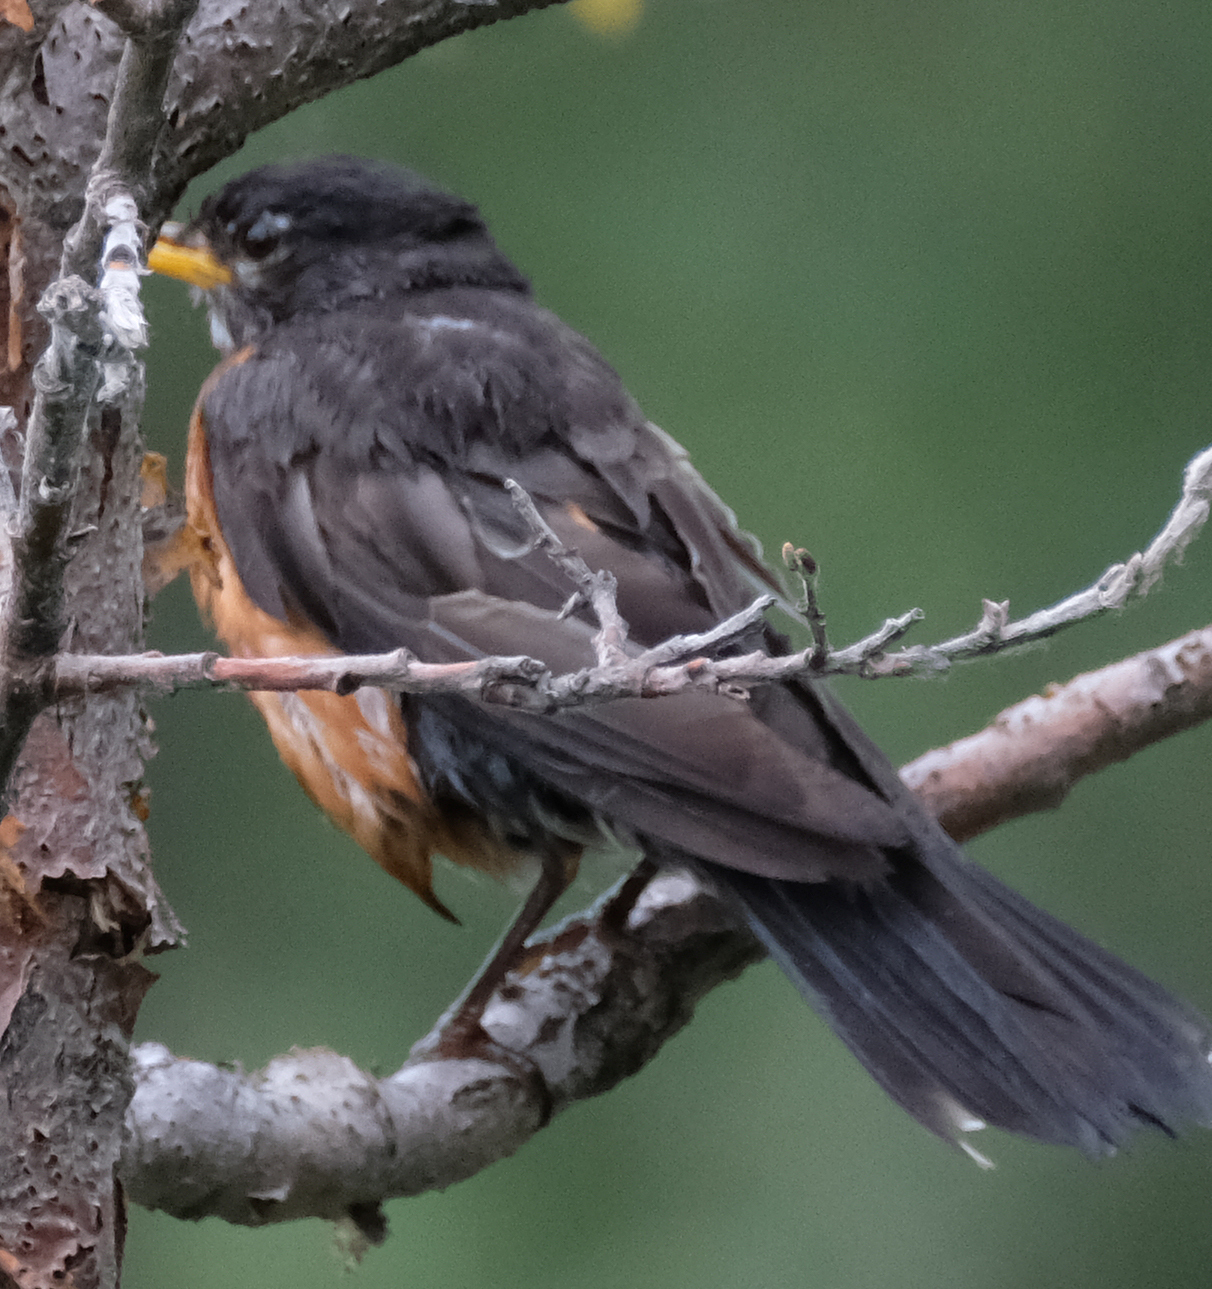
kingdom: Animalia
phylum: Chordata
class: Aves
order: Passeriformes
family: Turdidae
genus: Turdus
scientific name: Turdus migratorius
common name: American robin
